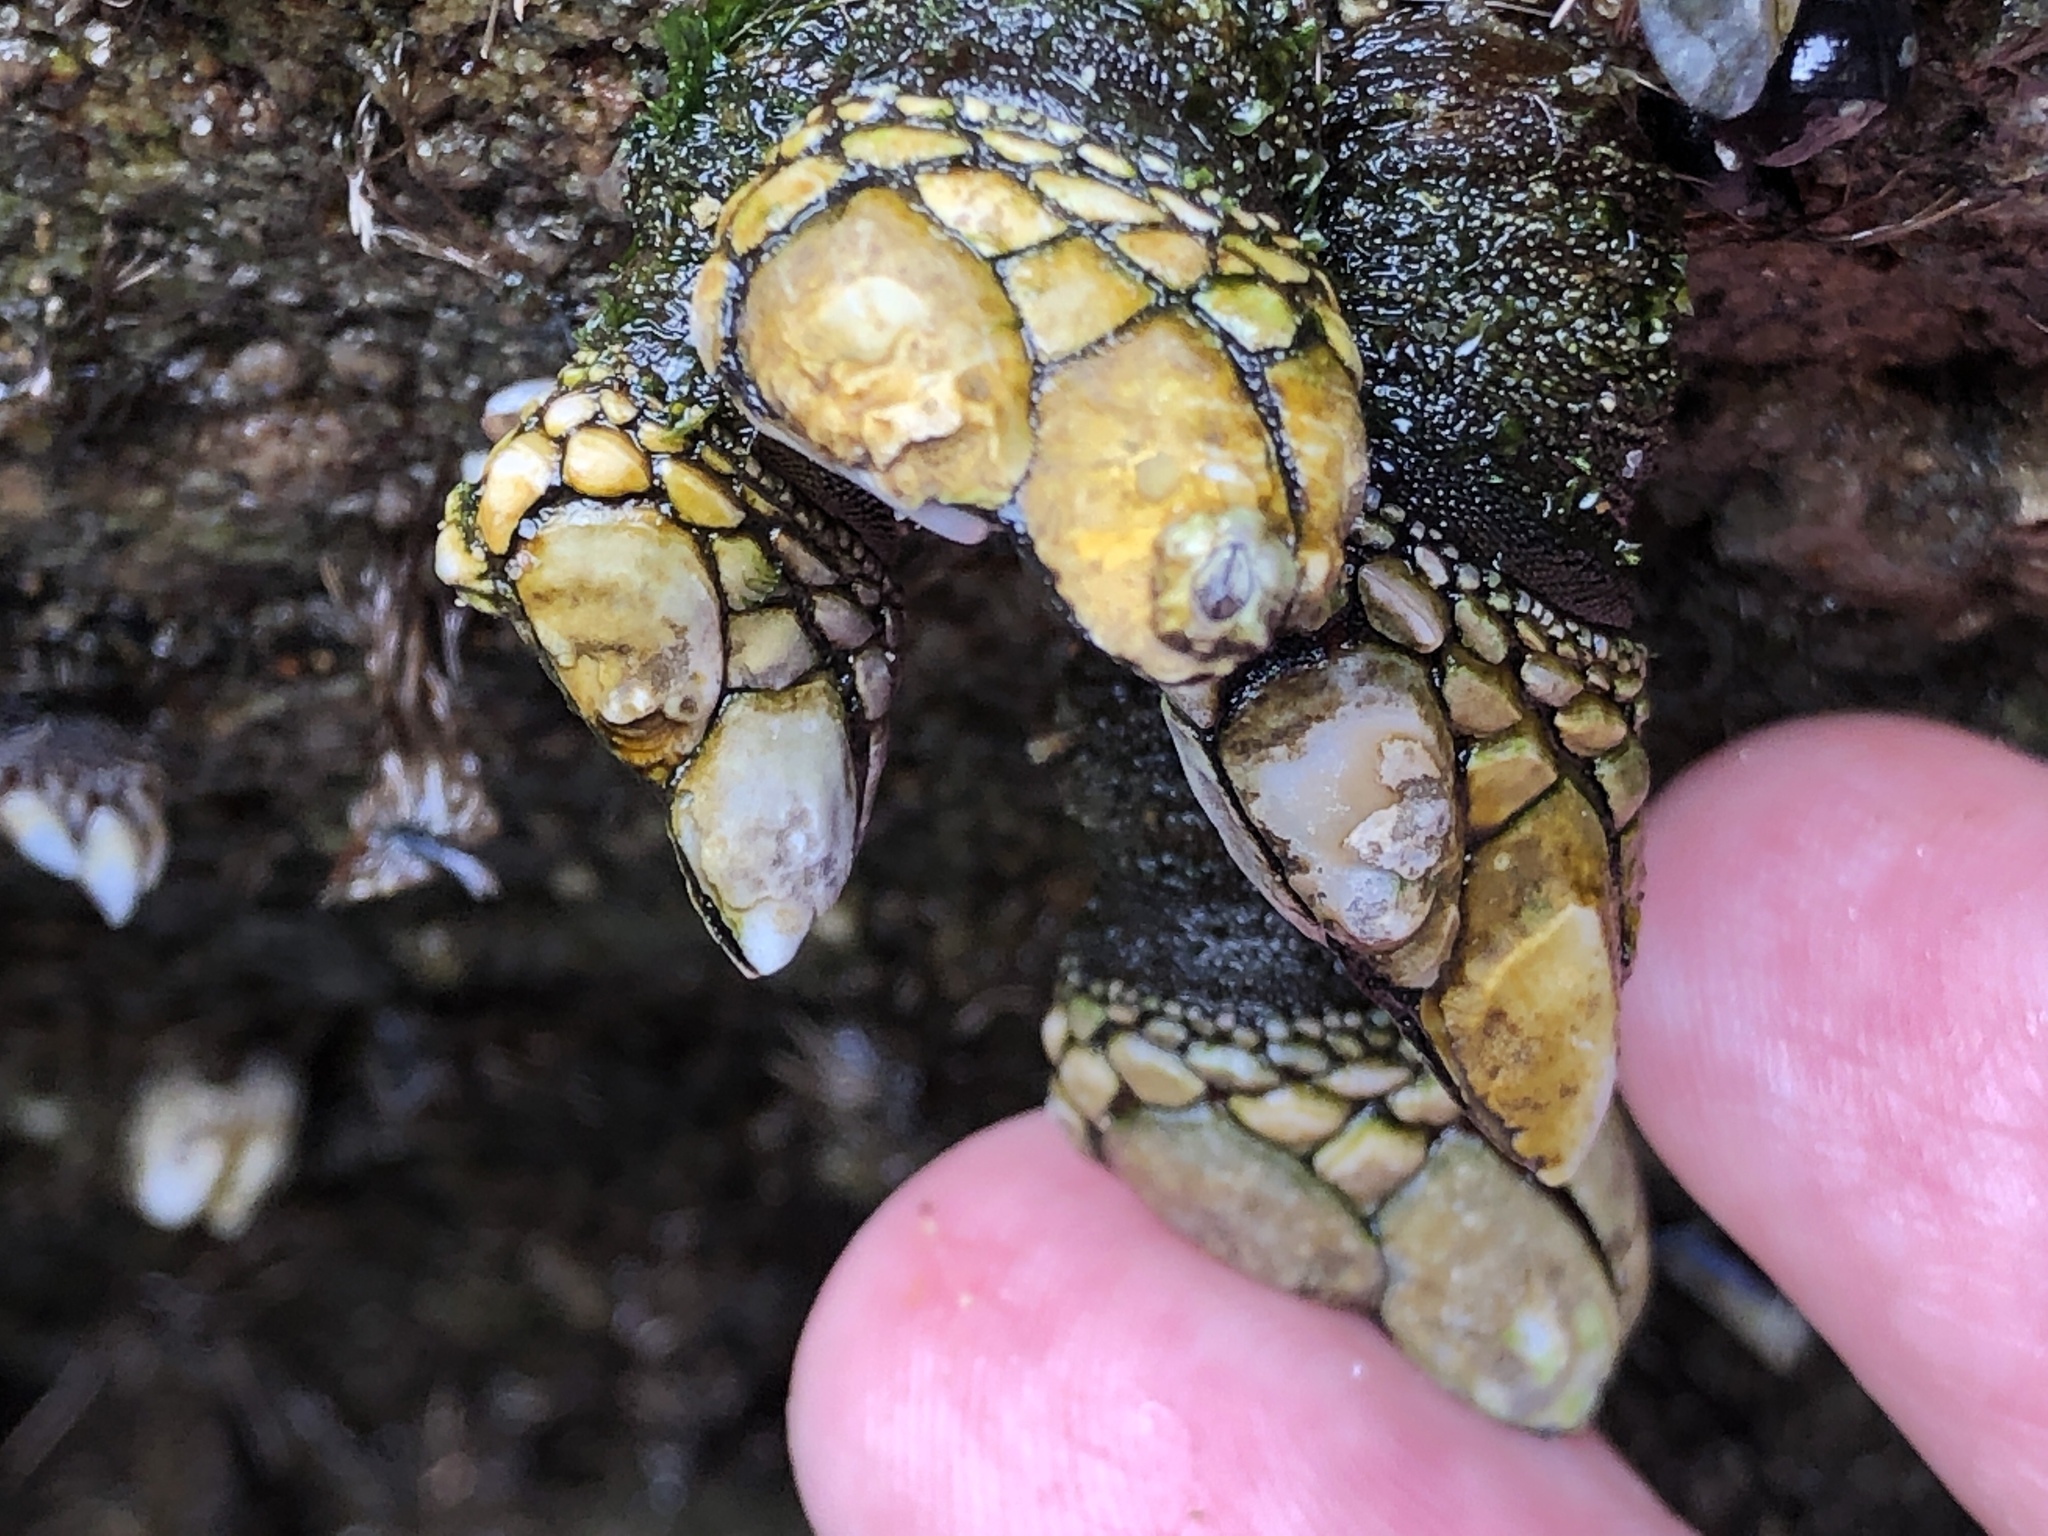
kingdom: Animalia
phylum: Arthropoda
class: Maxillopoda
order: Pedunculata
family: Pollicipedidae
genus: Pollicipes
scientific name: Pollicipes polymerus
